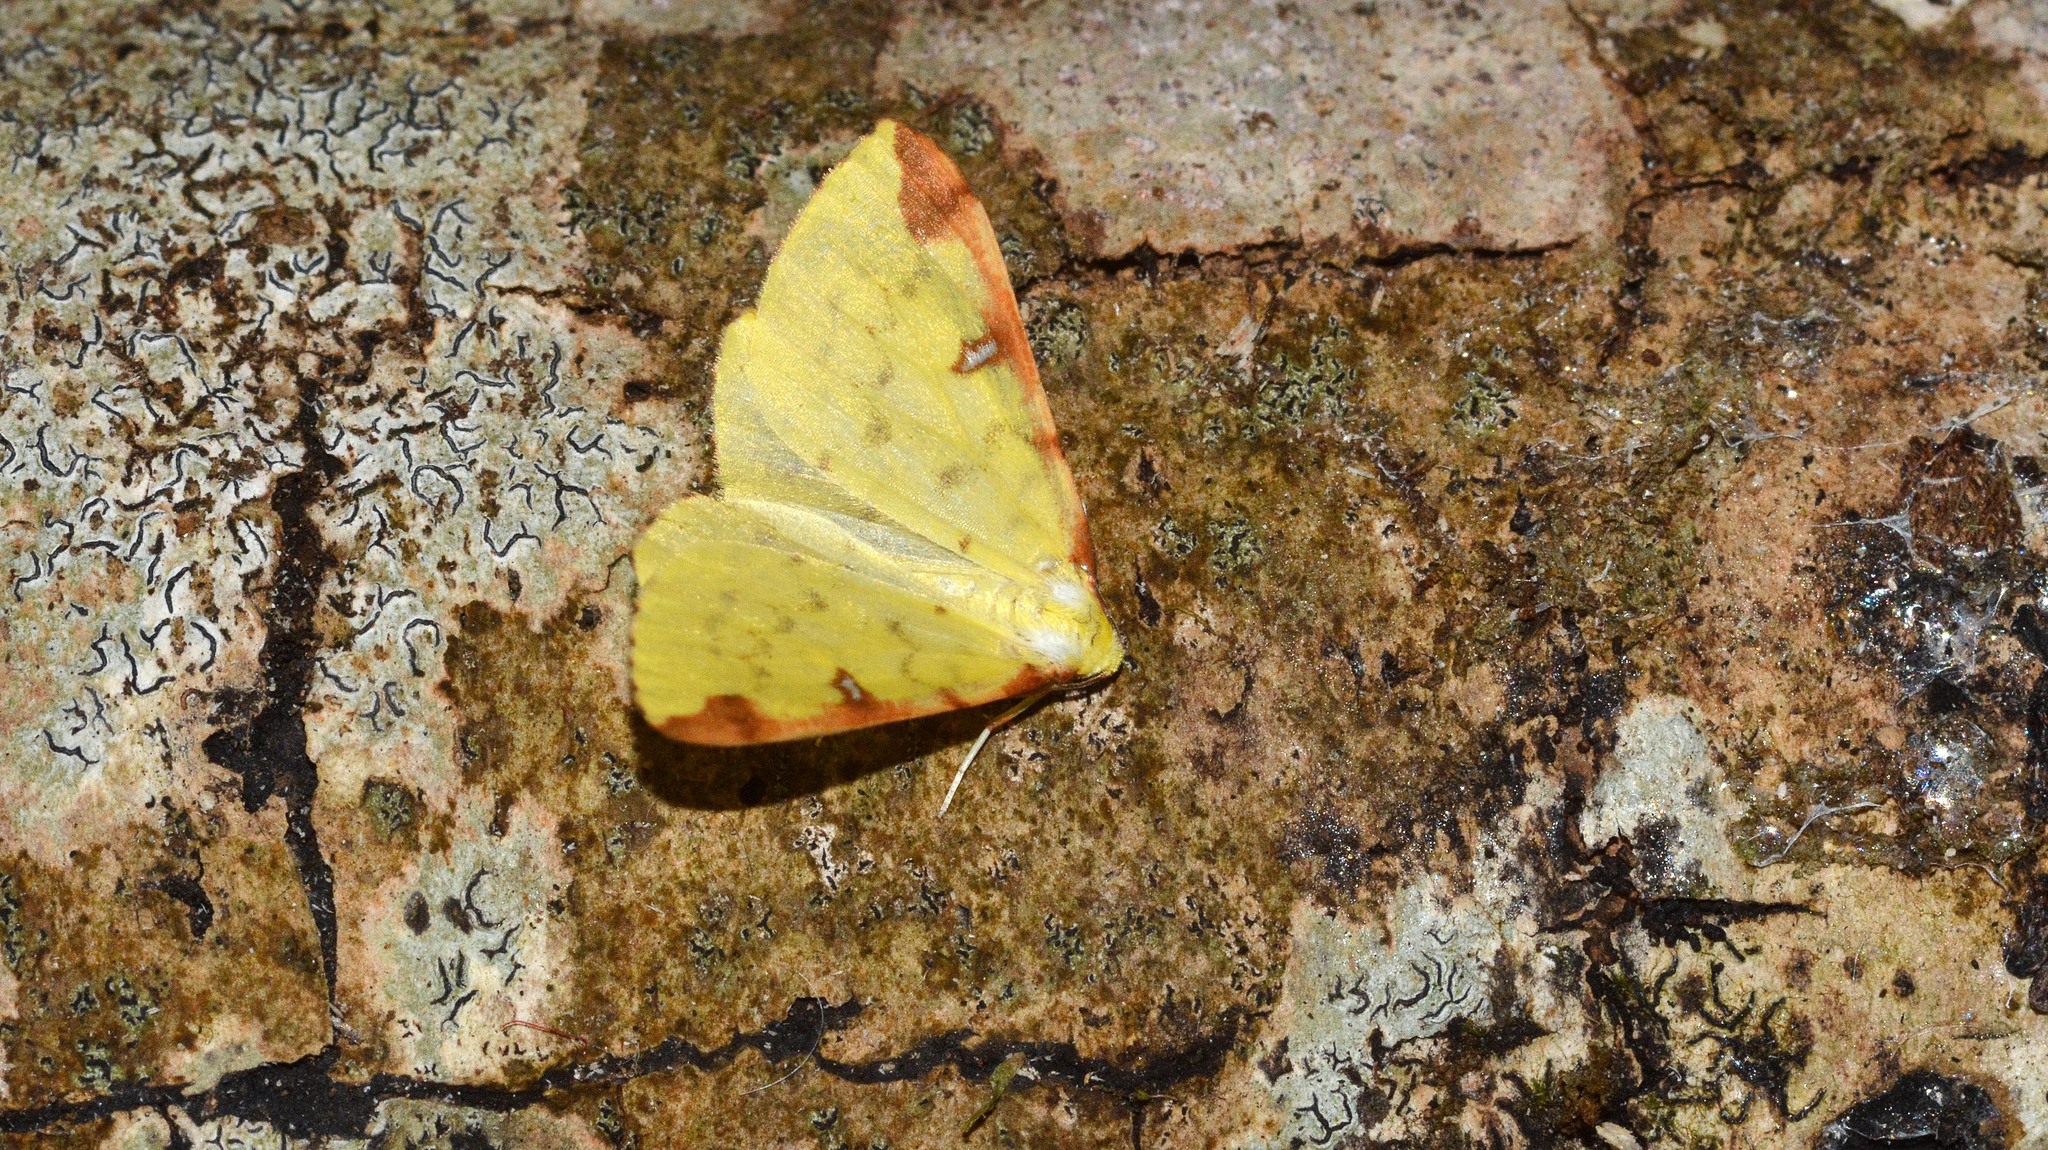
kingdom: Animalia
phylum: Arthropoda
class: Insecta
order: Lepidoptera
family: Geometridae
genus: Opisthograptis
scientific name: Opisthograptis luteolata
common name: Brimstone moth
